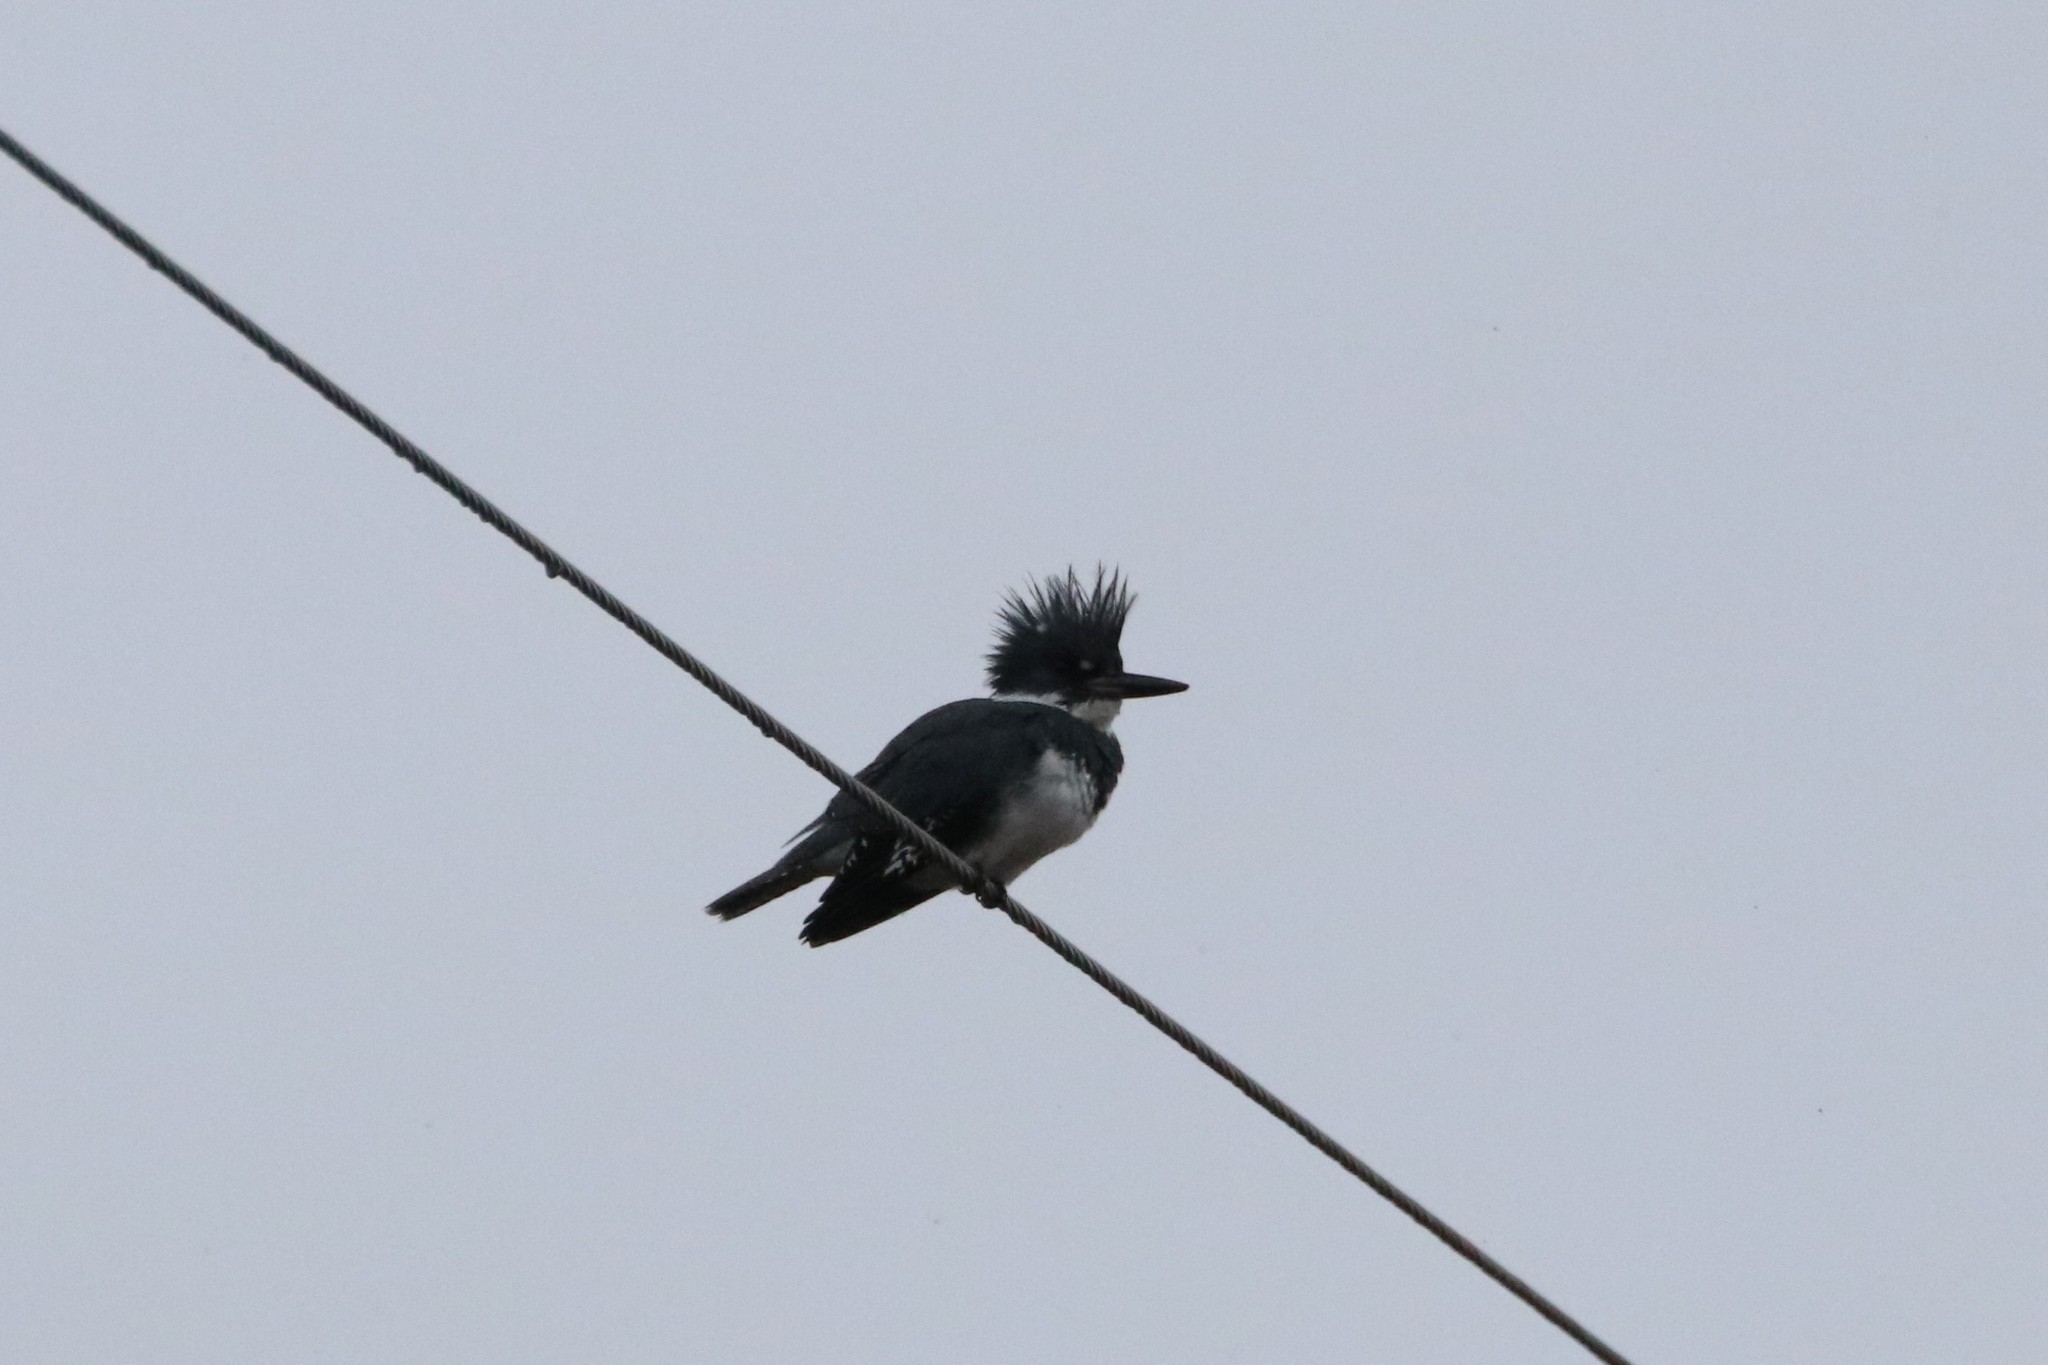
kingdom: Animalia
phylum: Chordata
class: Aves
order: Coraciiformes
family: Alcedinidae
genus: Megaceryle
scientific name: Megaceryle alcyon
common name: Belted kingfisher
